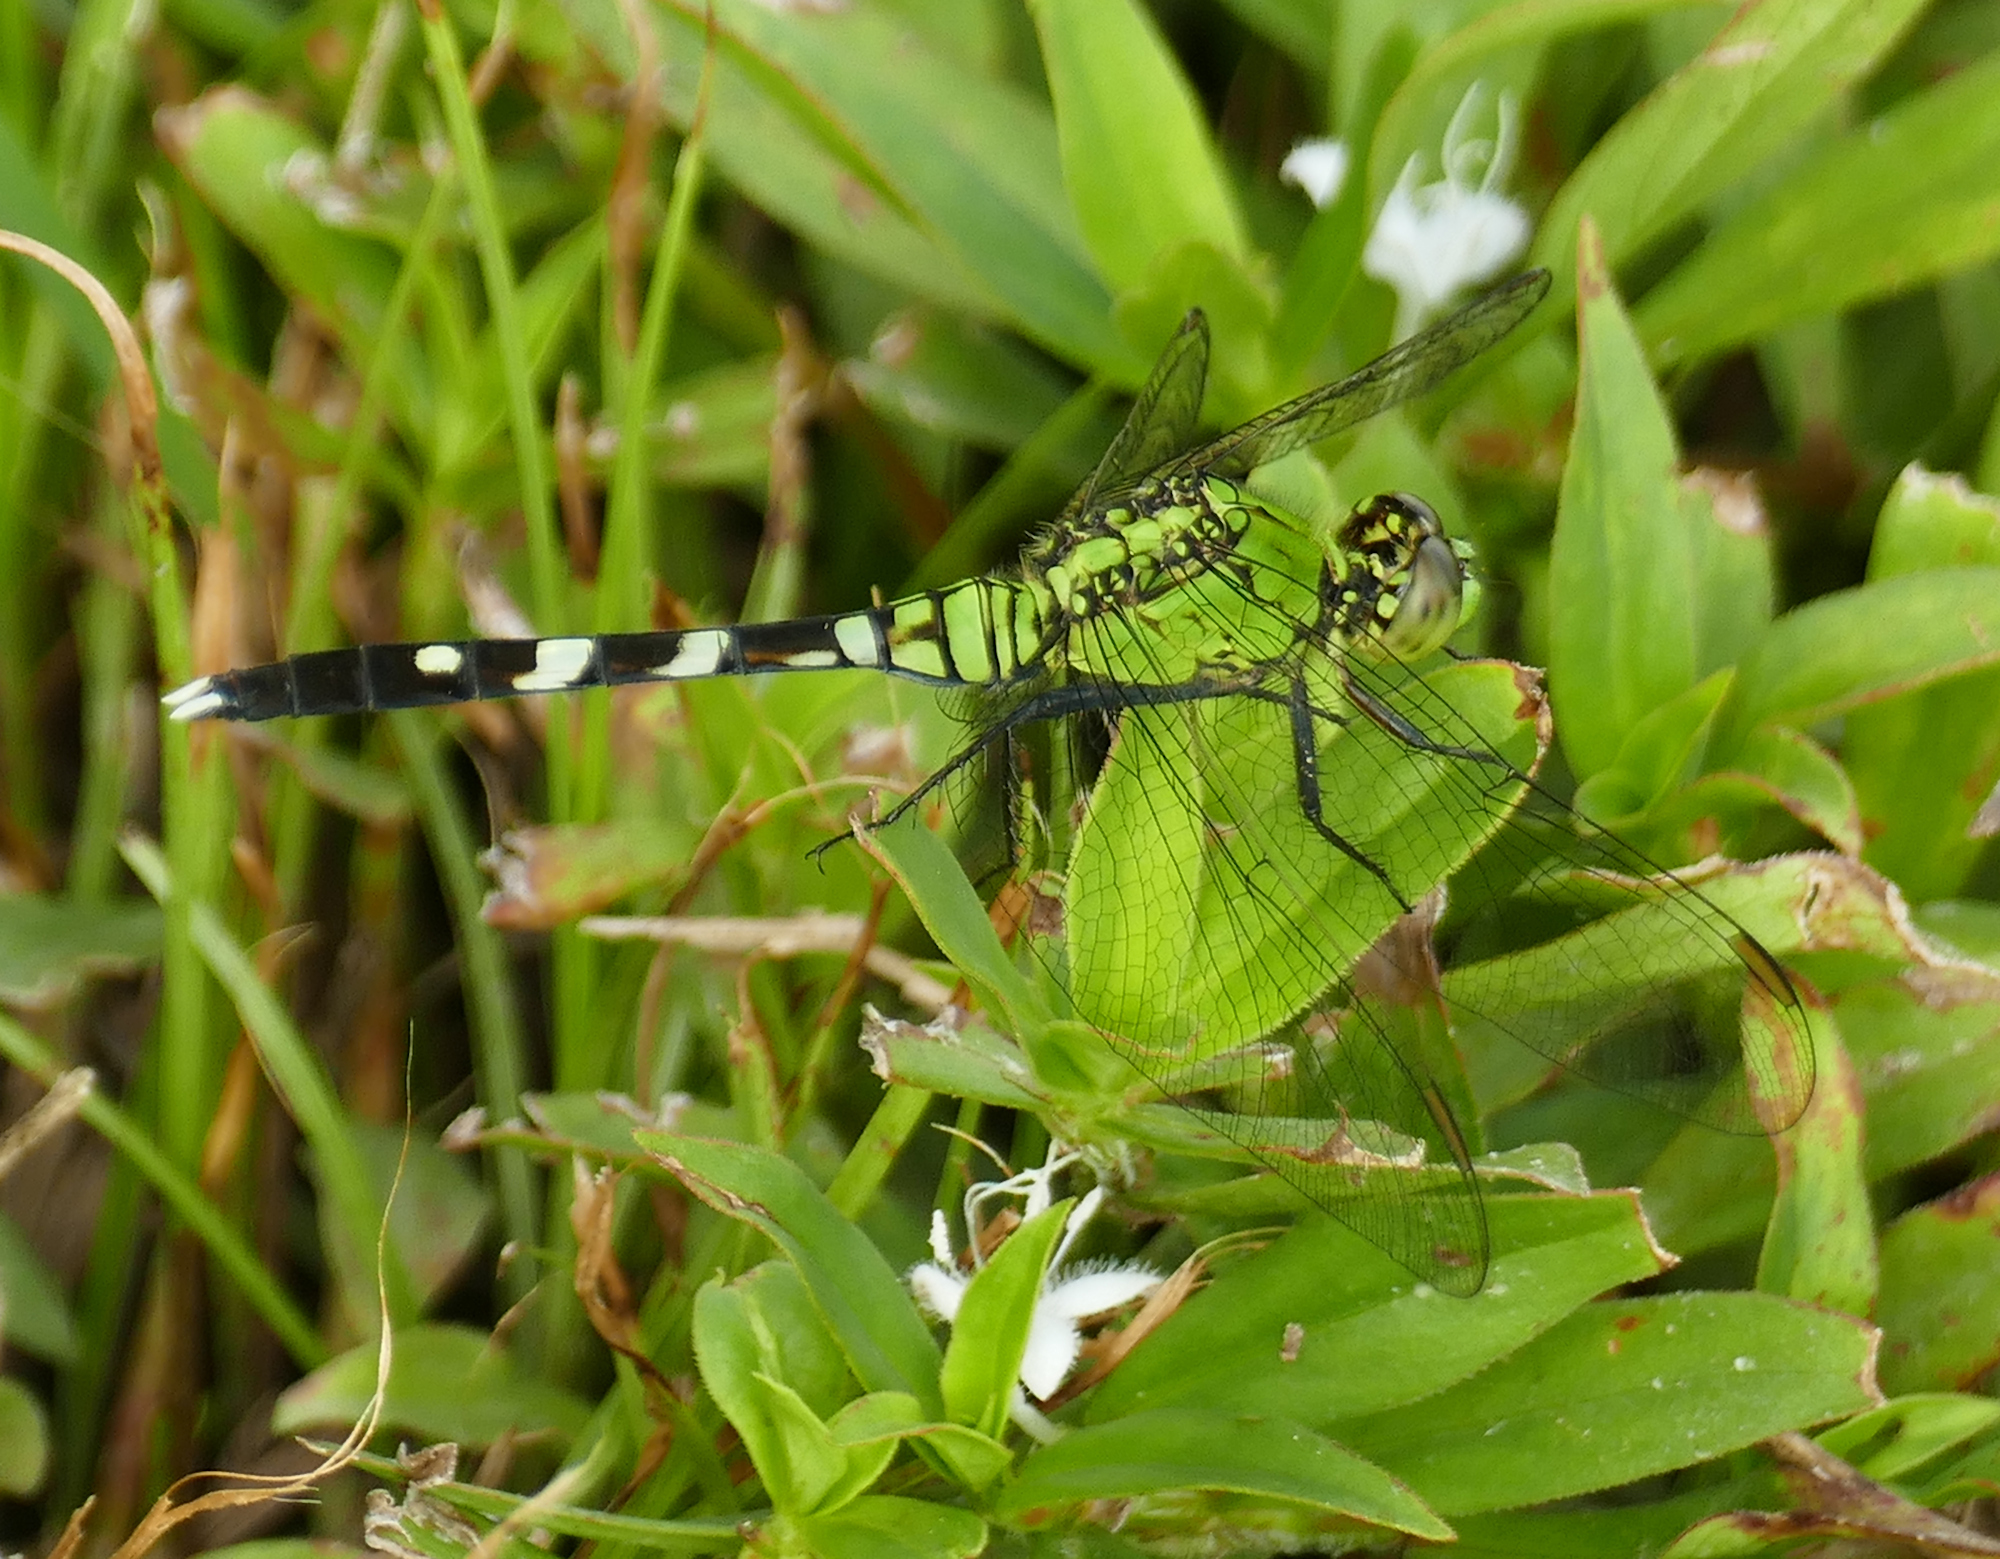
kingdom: Animalia
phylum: Arthropoda
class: Insecta
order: Odonata
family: Libellulidae
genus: Erythemis
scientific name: Erythemis simplicicollis
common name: Eastern pondhawk
